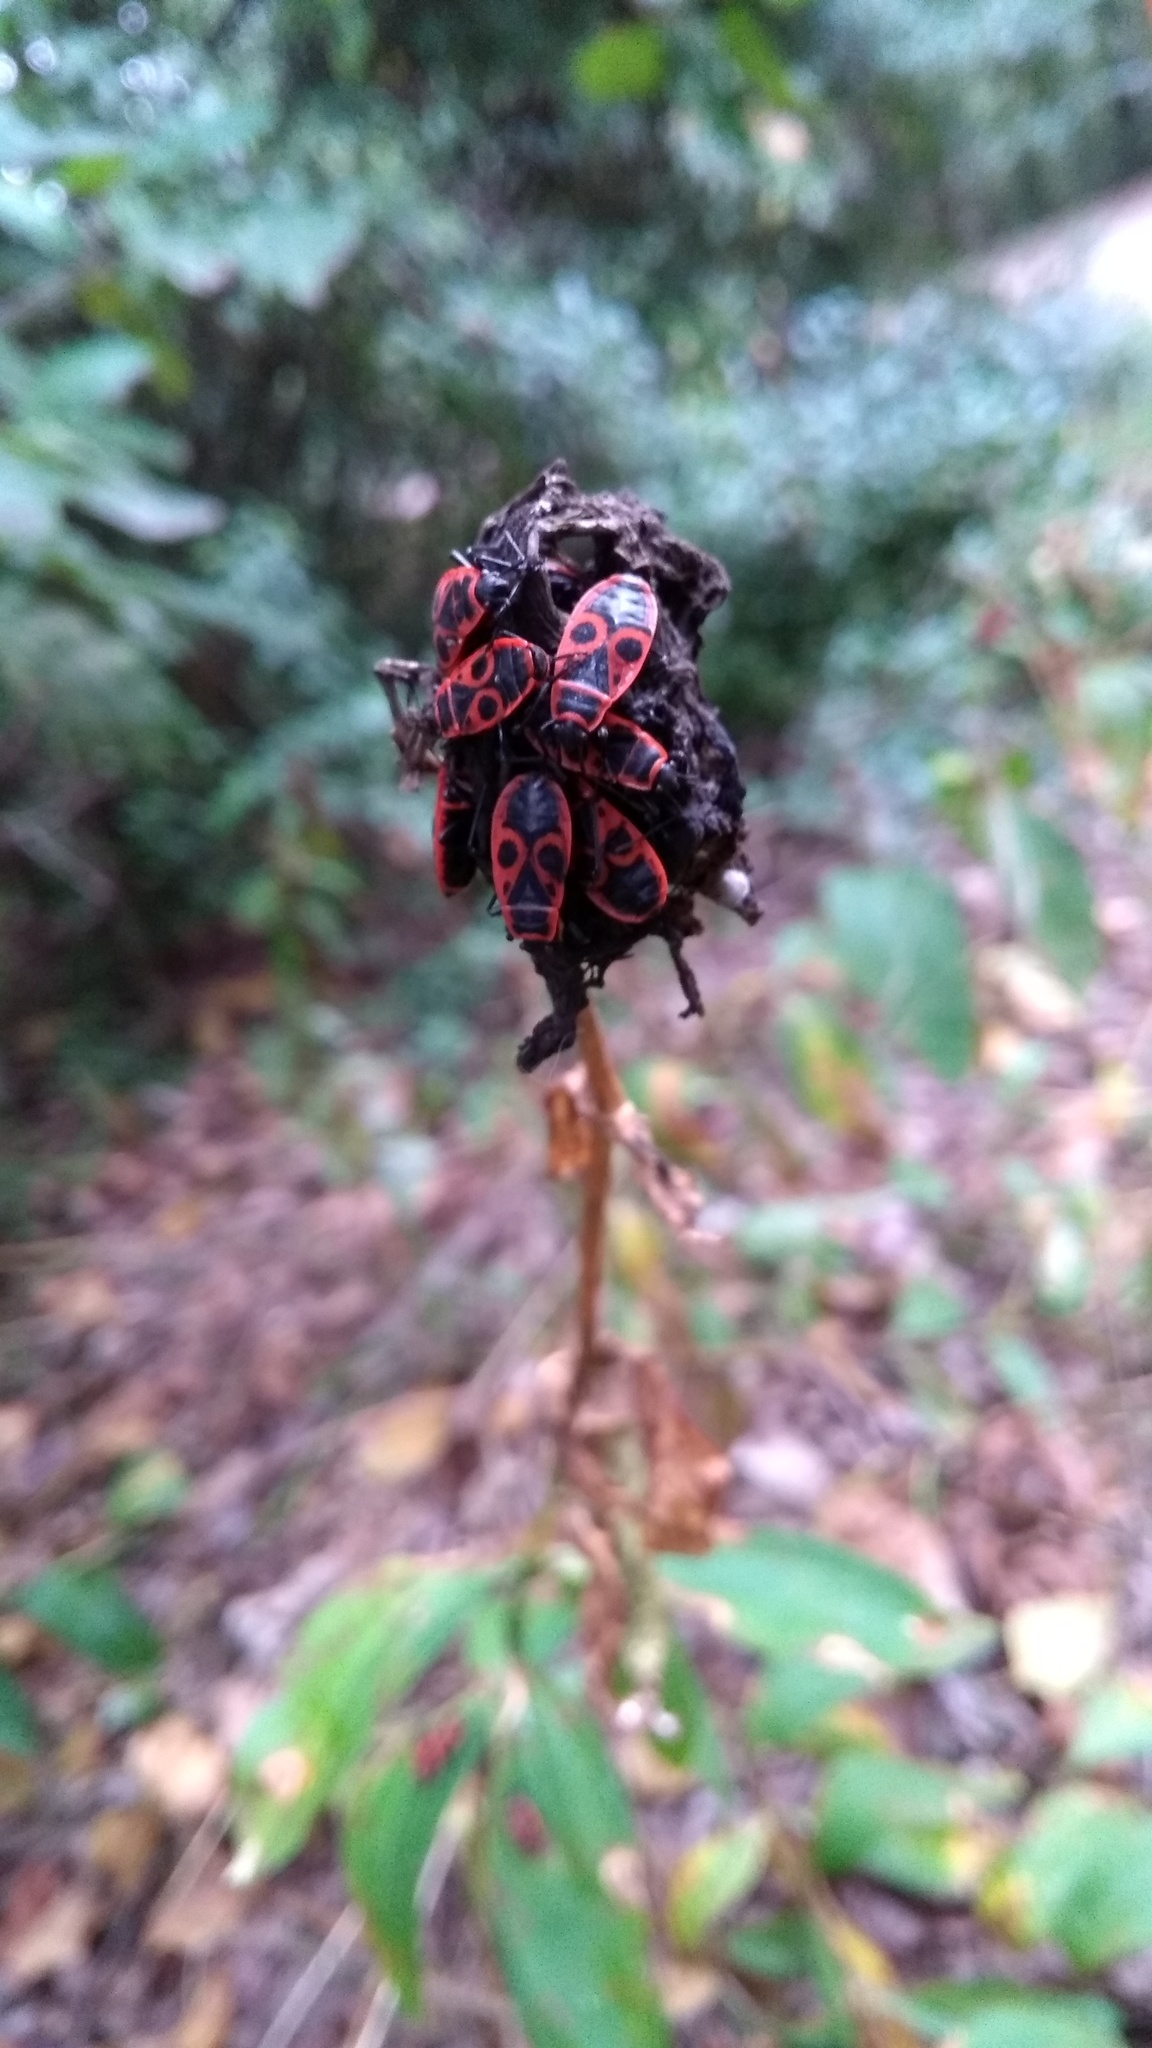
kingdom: Animalia
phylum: Arthropoda
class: Insecta
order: Hemiptera
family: Pyrrhocoridae
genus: Pyrrhocoris
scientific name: Pyrrhocoris apterus
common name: Firebug
